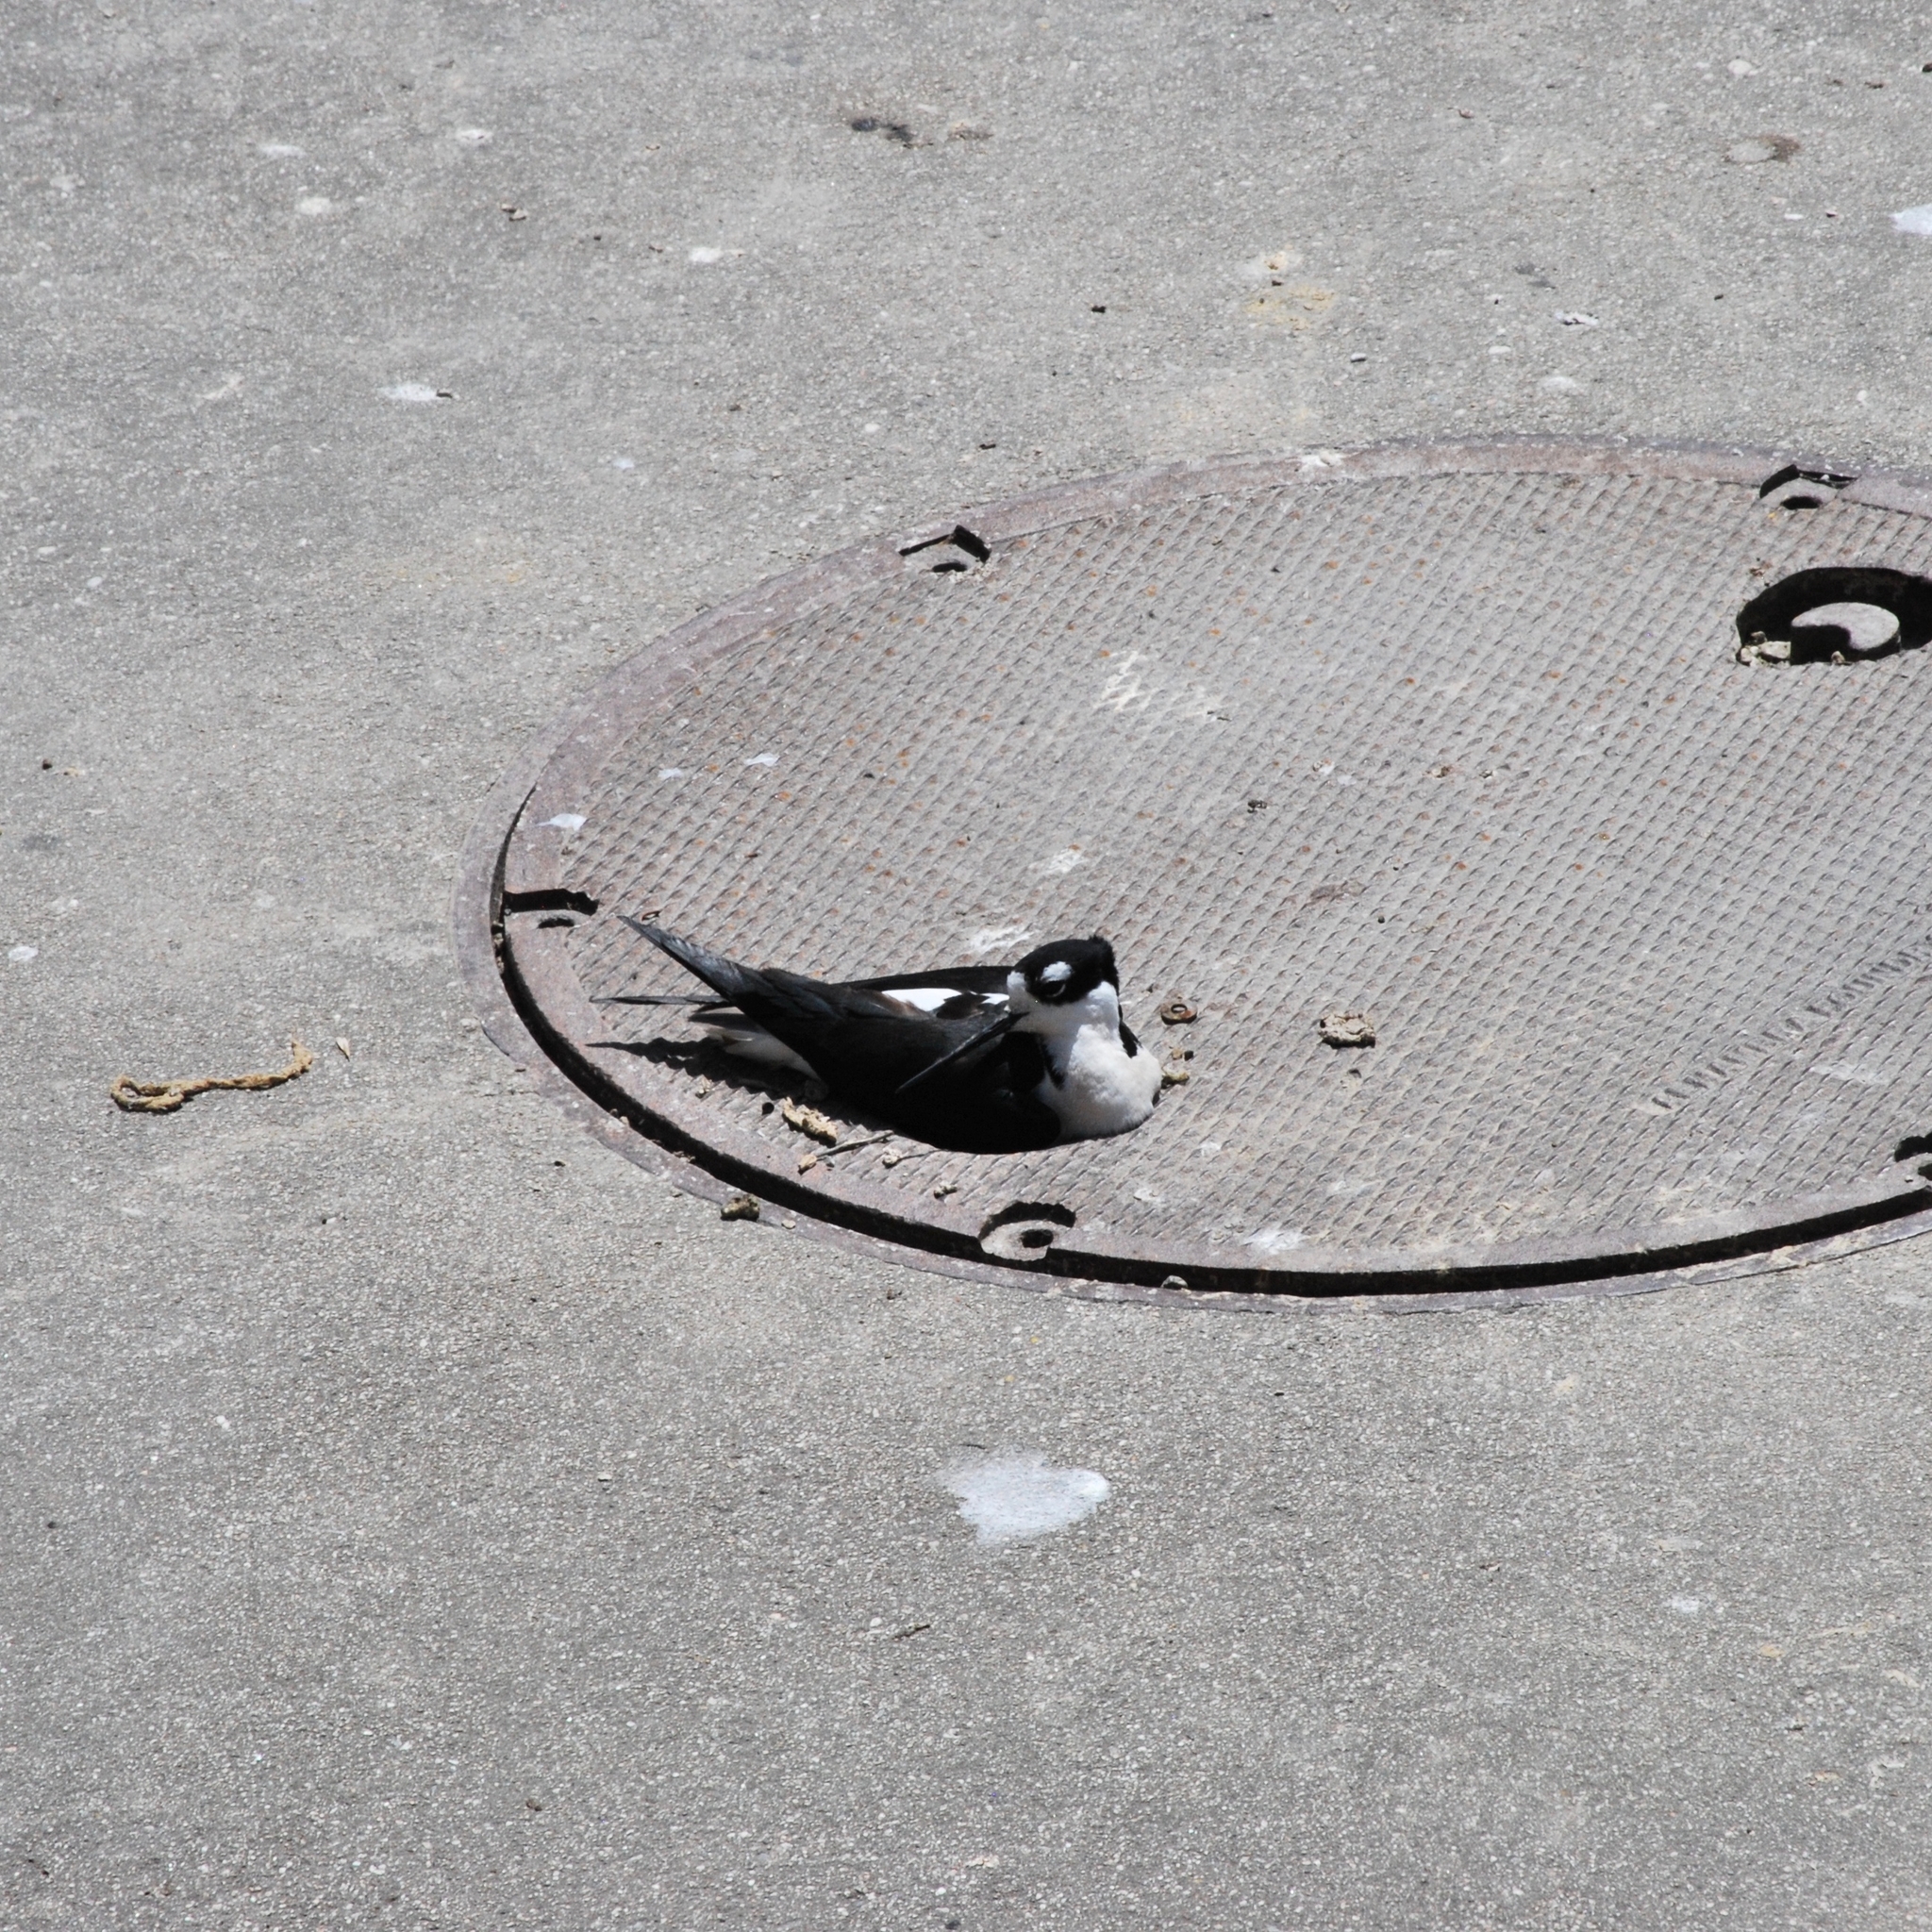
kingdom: Animalia
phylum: Chordata
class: Aves
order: Charadriiformes
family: Recurvirostridae
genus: Himantopus
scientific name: Himantopus mexicanus
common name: Black-necked stilt
